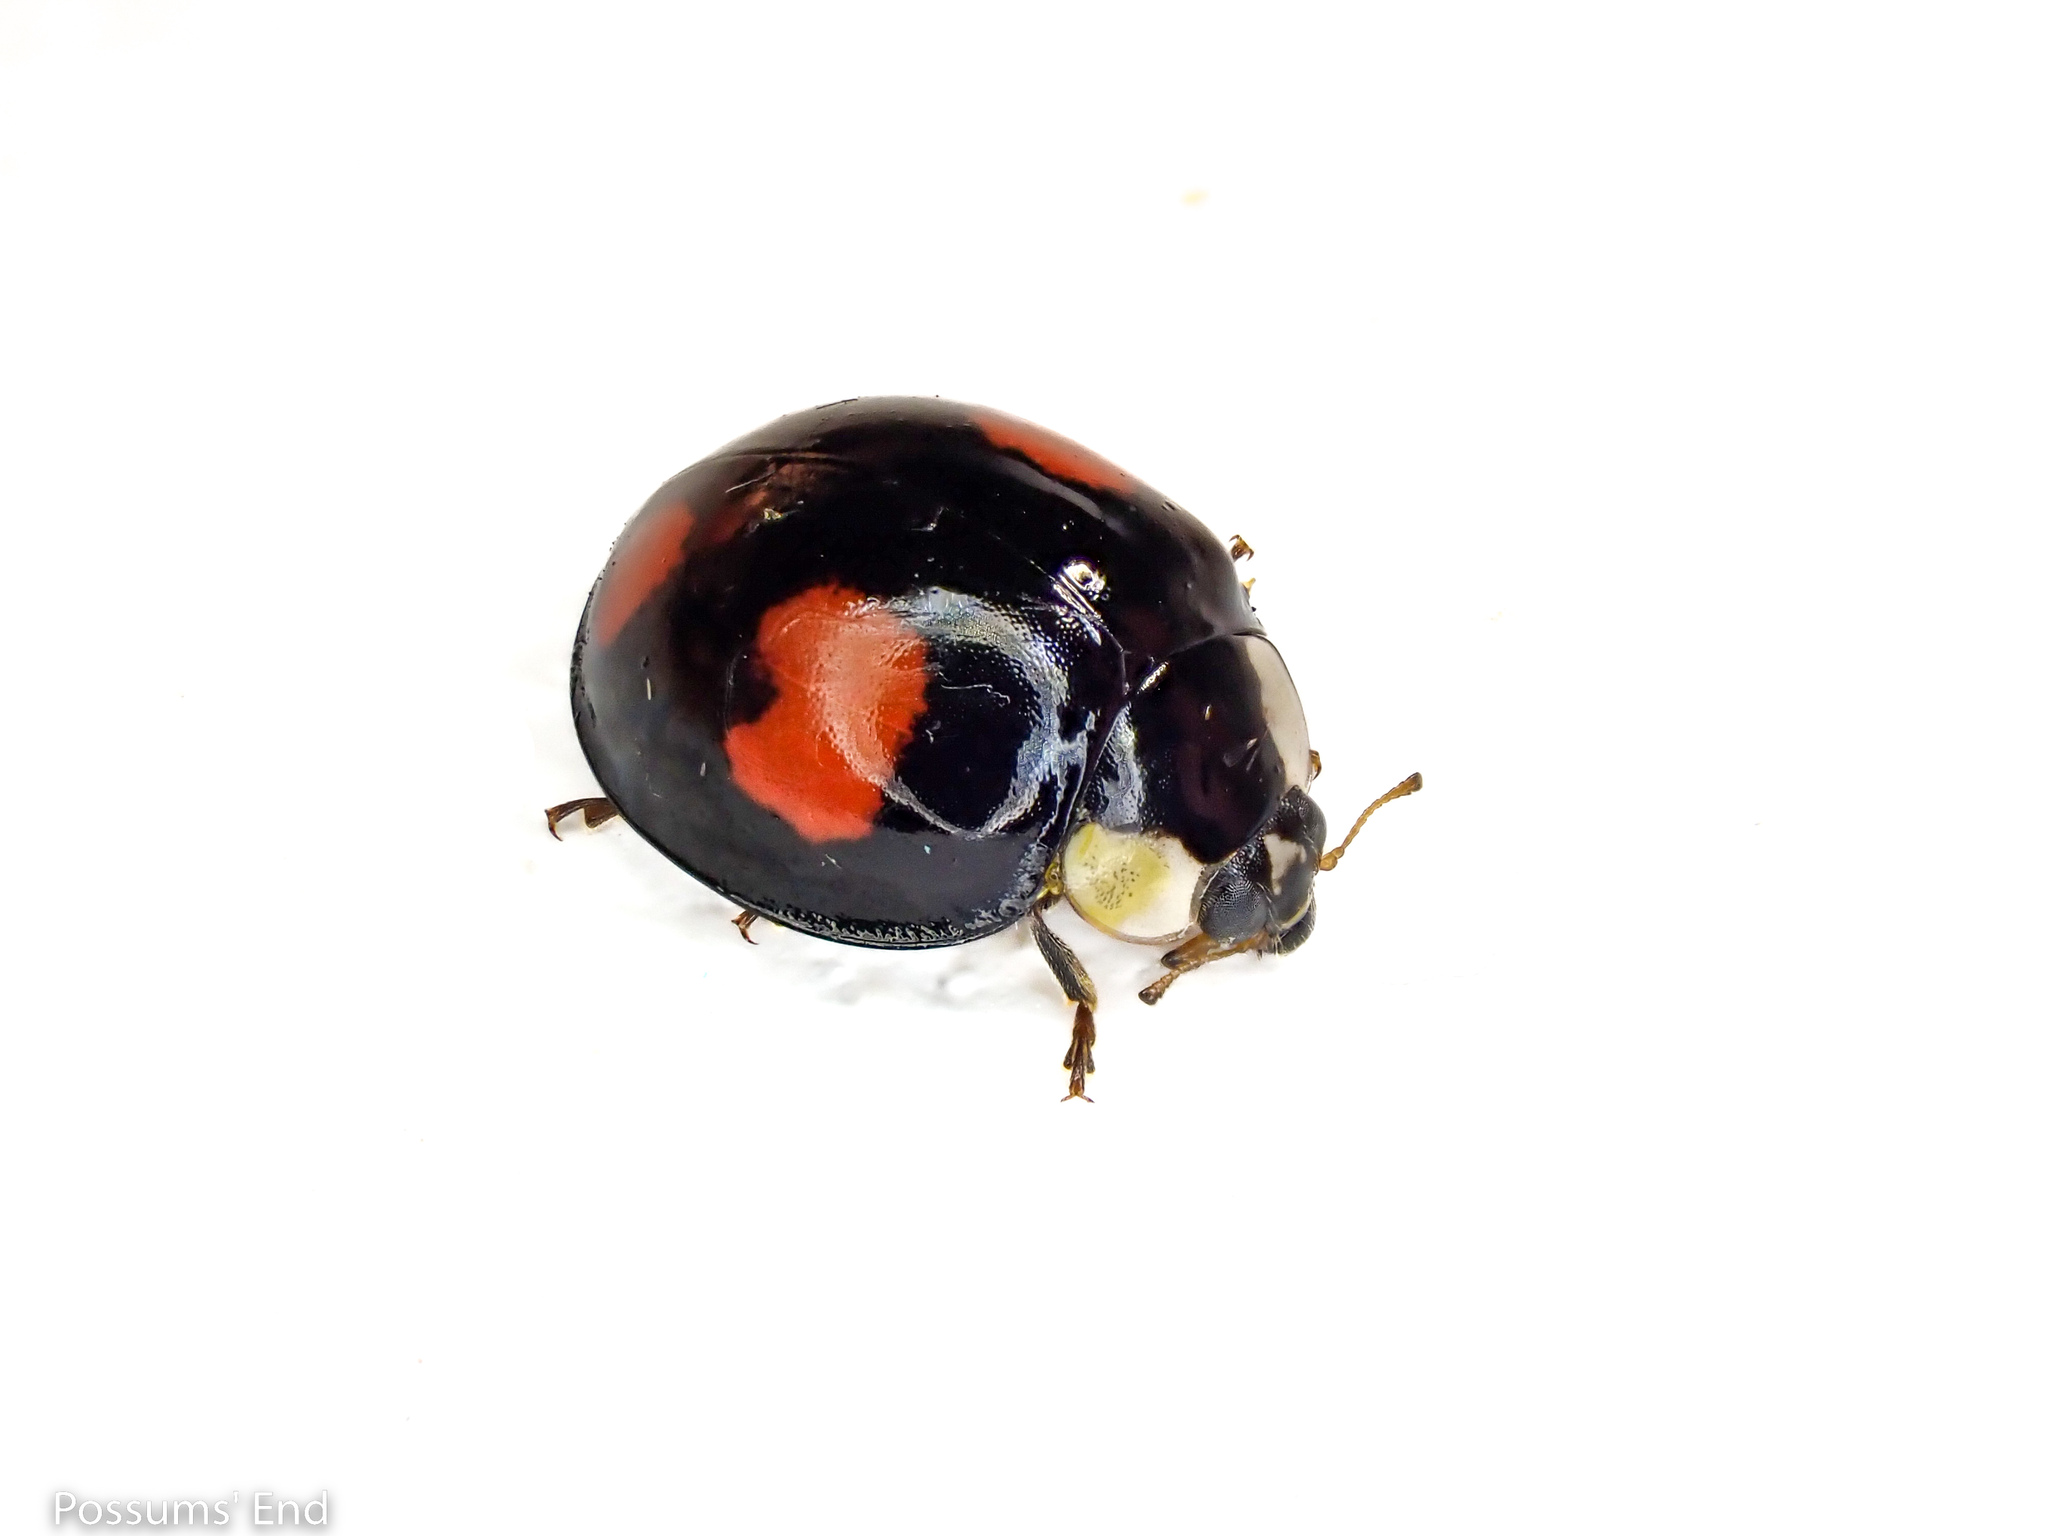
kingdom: Animalia
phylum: Arthropoda
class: Insecta
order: Coleoptera
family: Coccinellidae
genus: Harmonia
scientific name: Harmonia axyridis
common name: Harlequin ladybird
